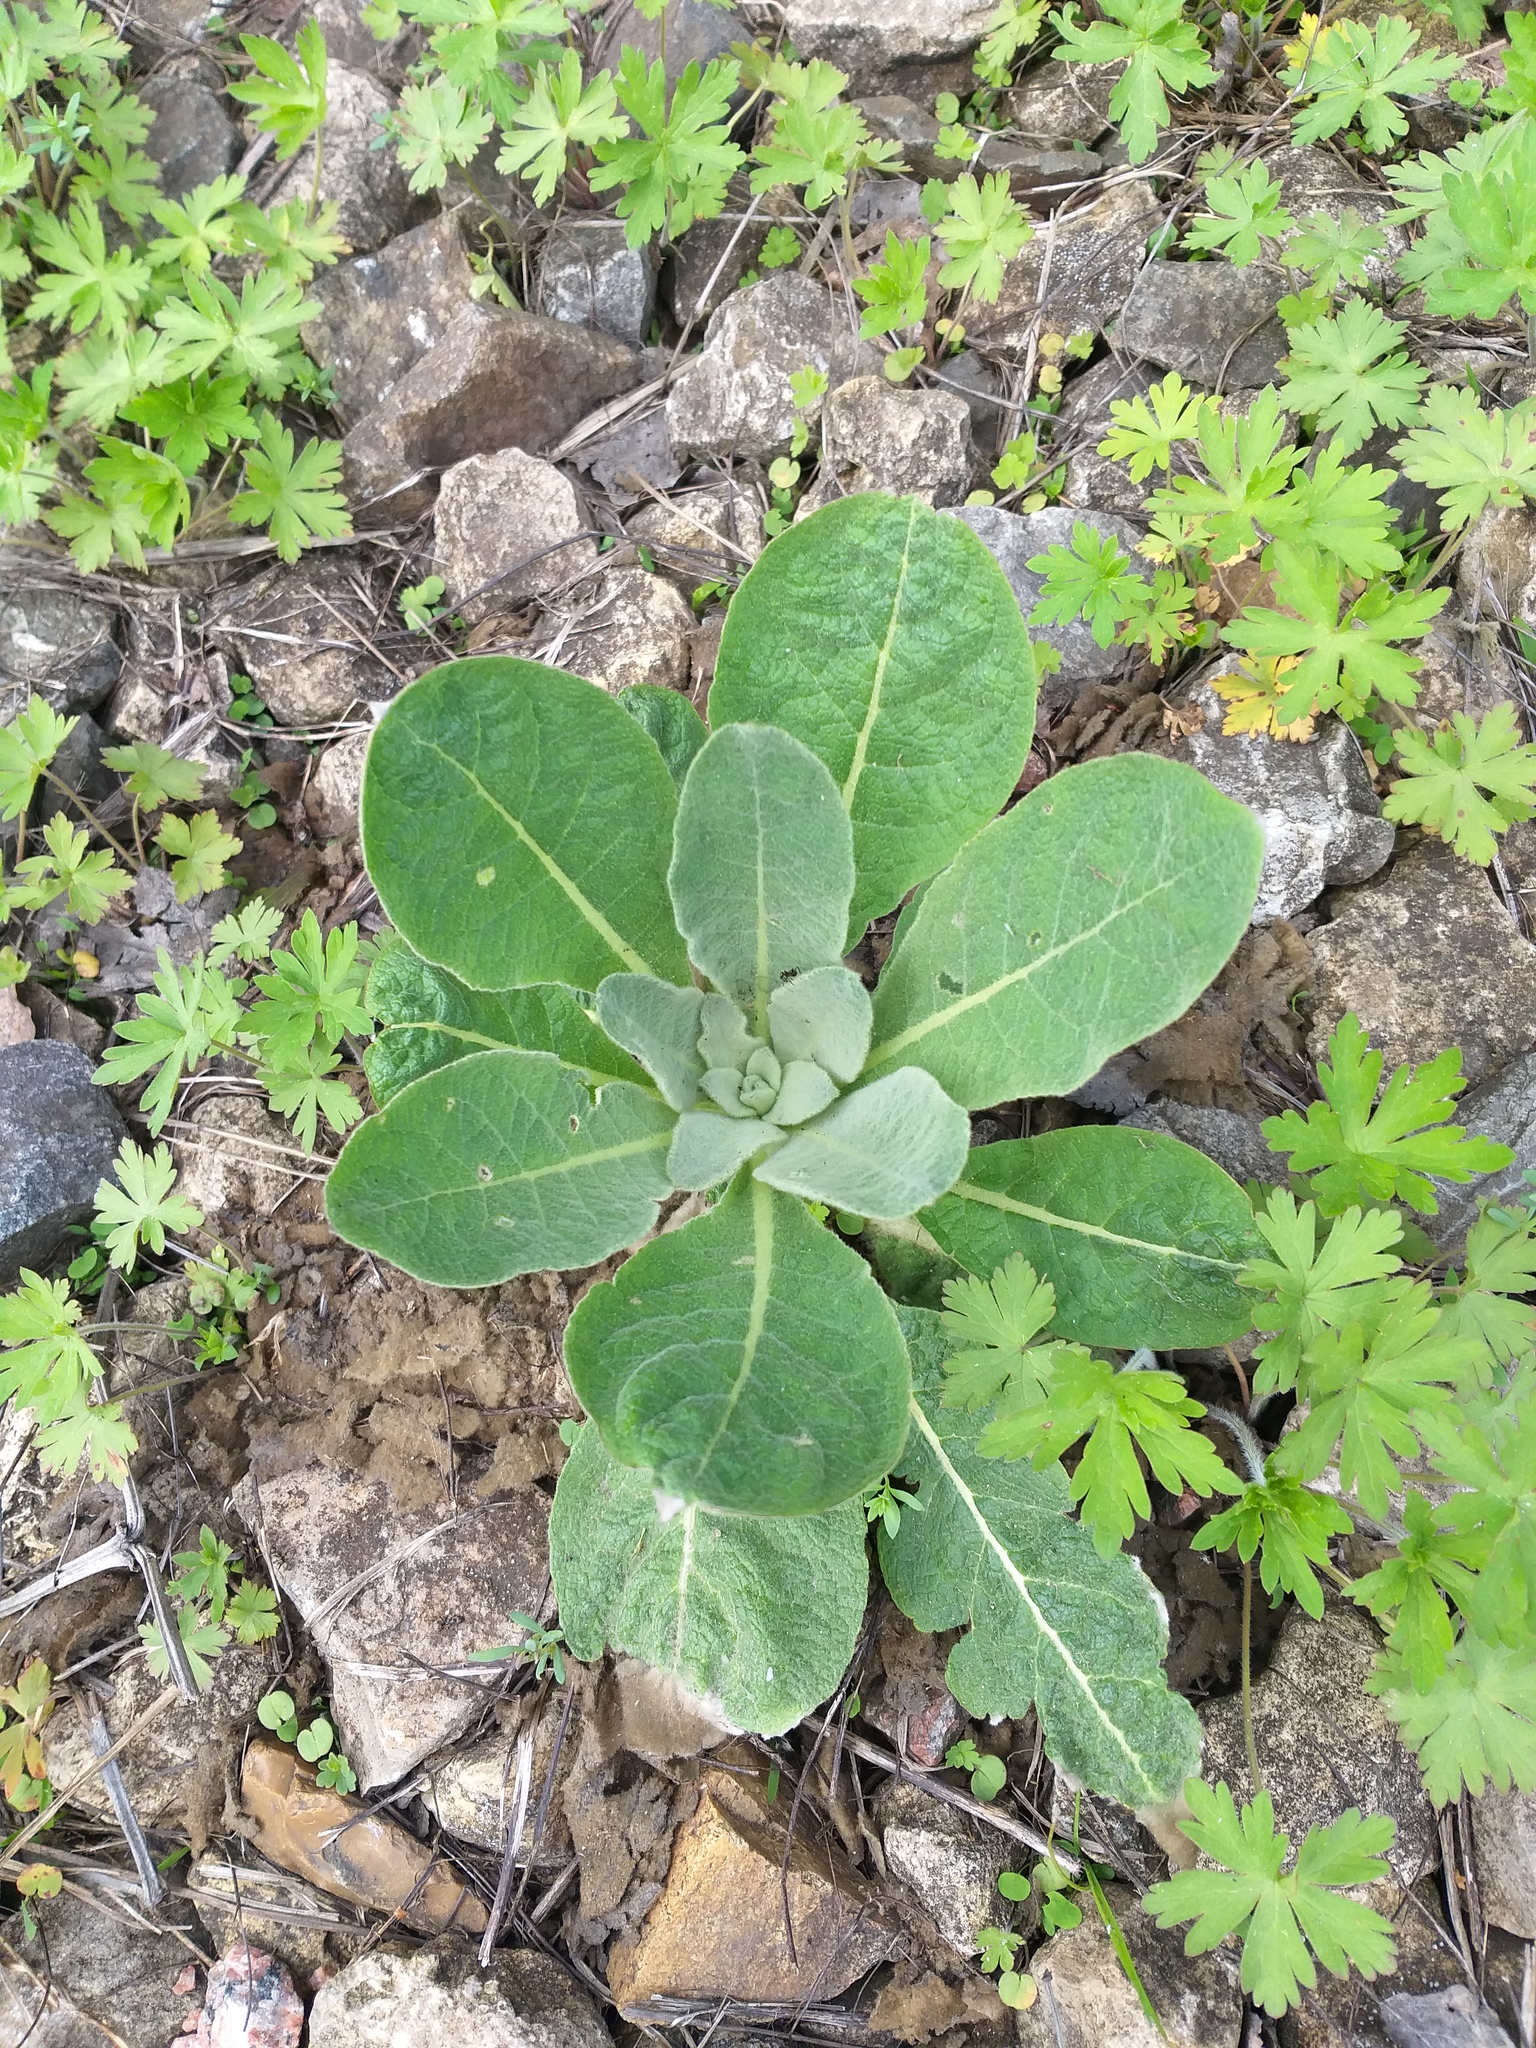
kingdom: Plantae
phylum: Tracheophyta
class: Magnoliopsida
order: Lamiales
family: Scrophulariaceae
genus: Verbascum
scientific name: Verbascum thapsus
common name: Common mullein
